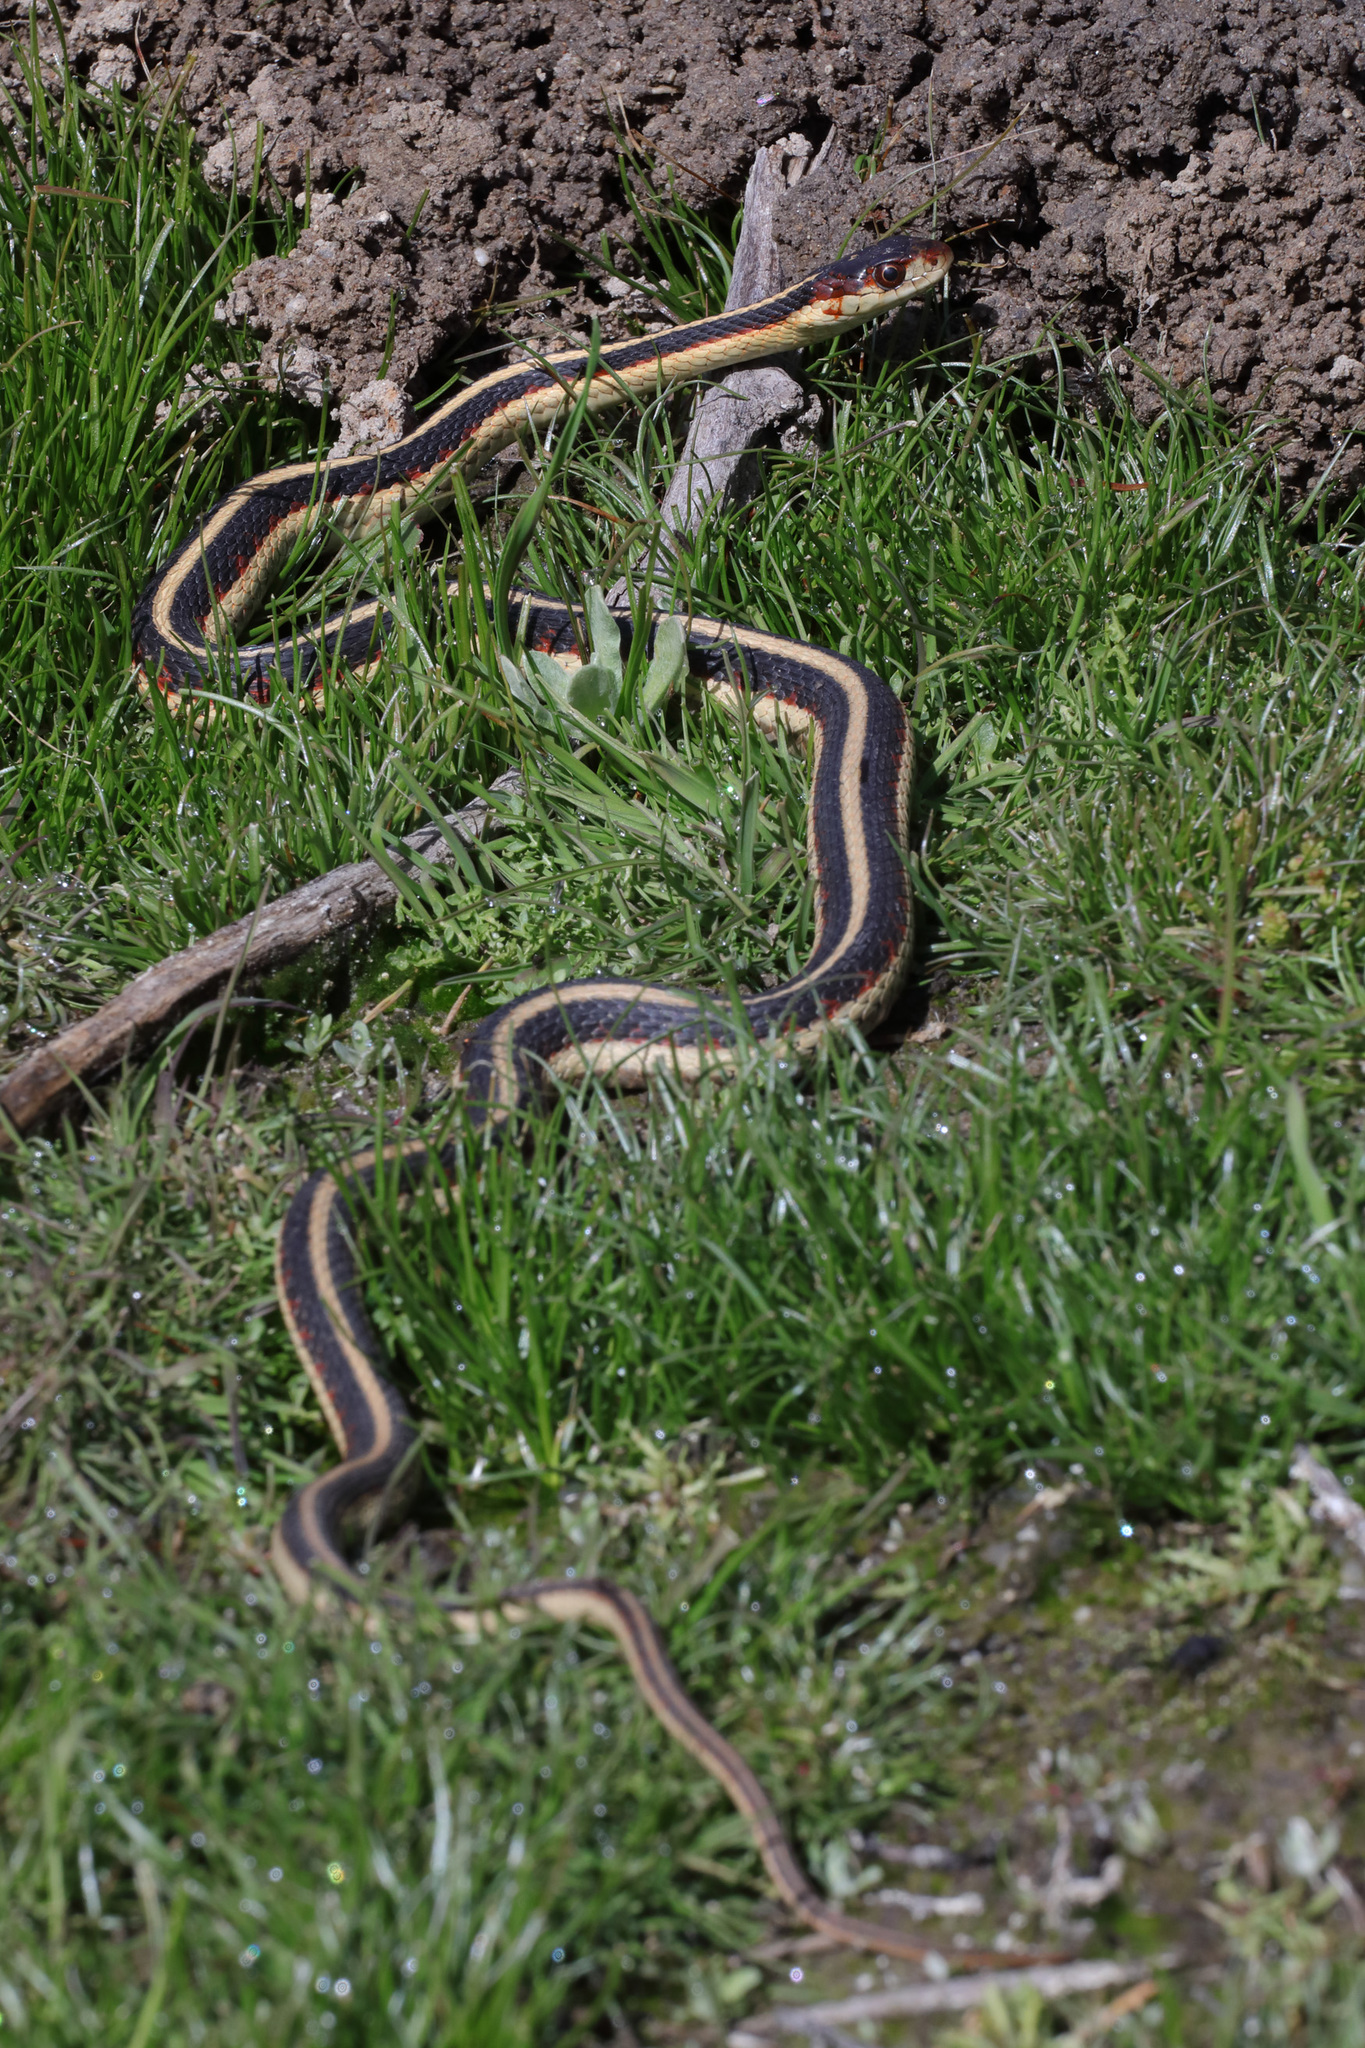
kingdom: Animalia
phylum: Chordata
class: Squamata
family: Colubridae
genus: Thamnophis
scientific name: Thamnophis sirtalis
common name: Common garter snake
